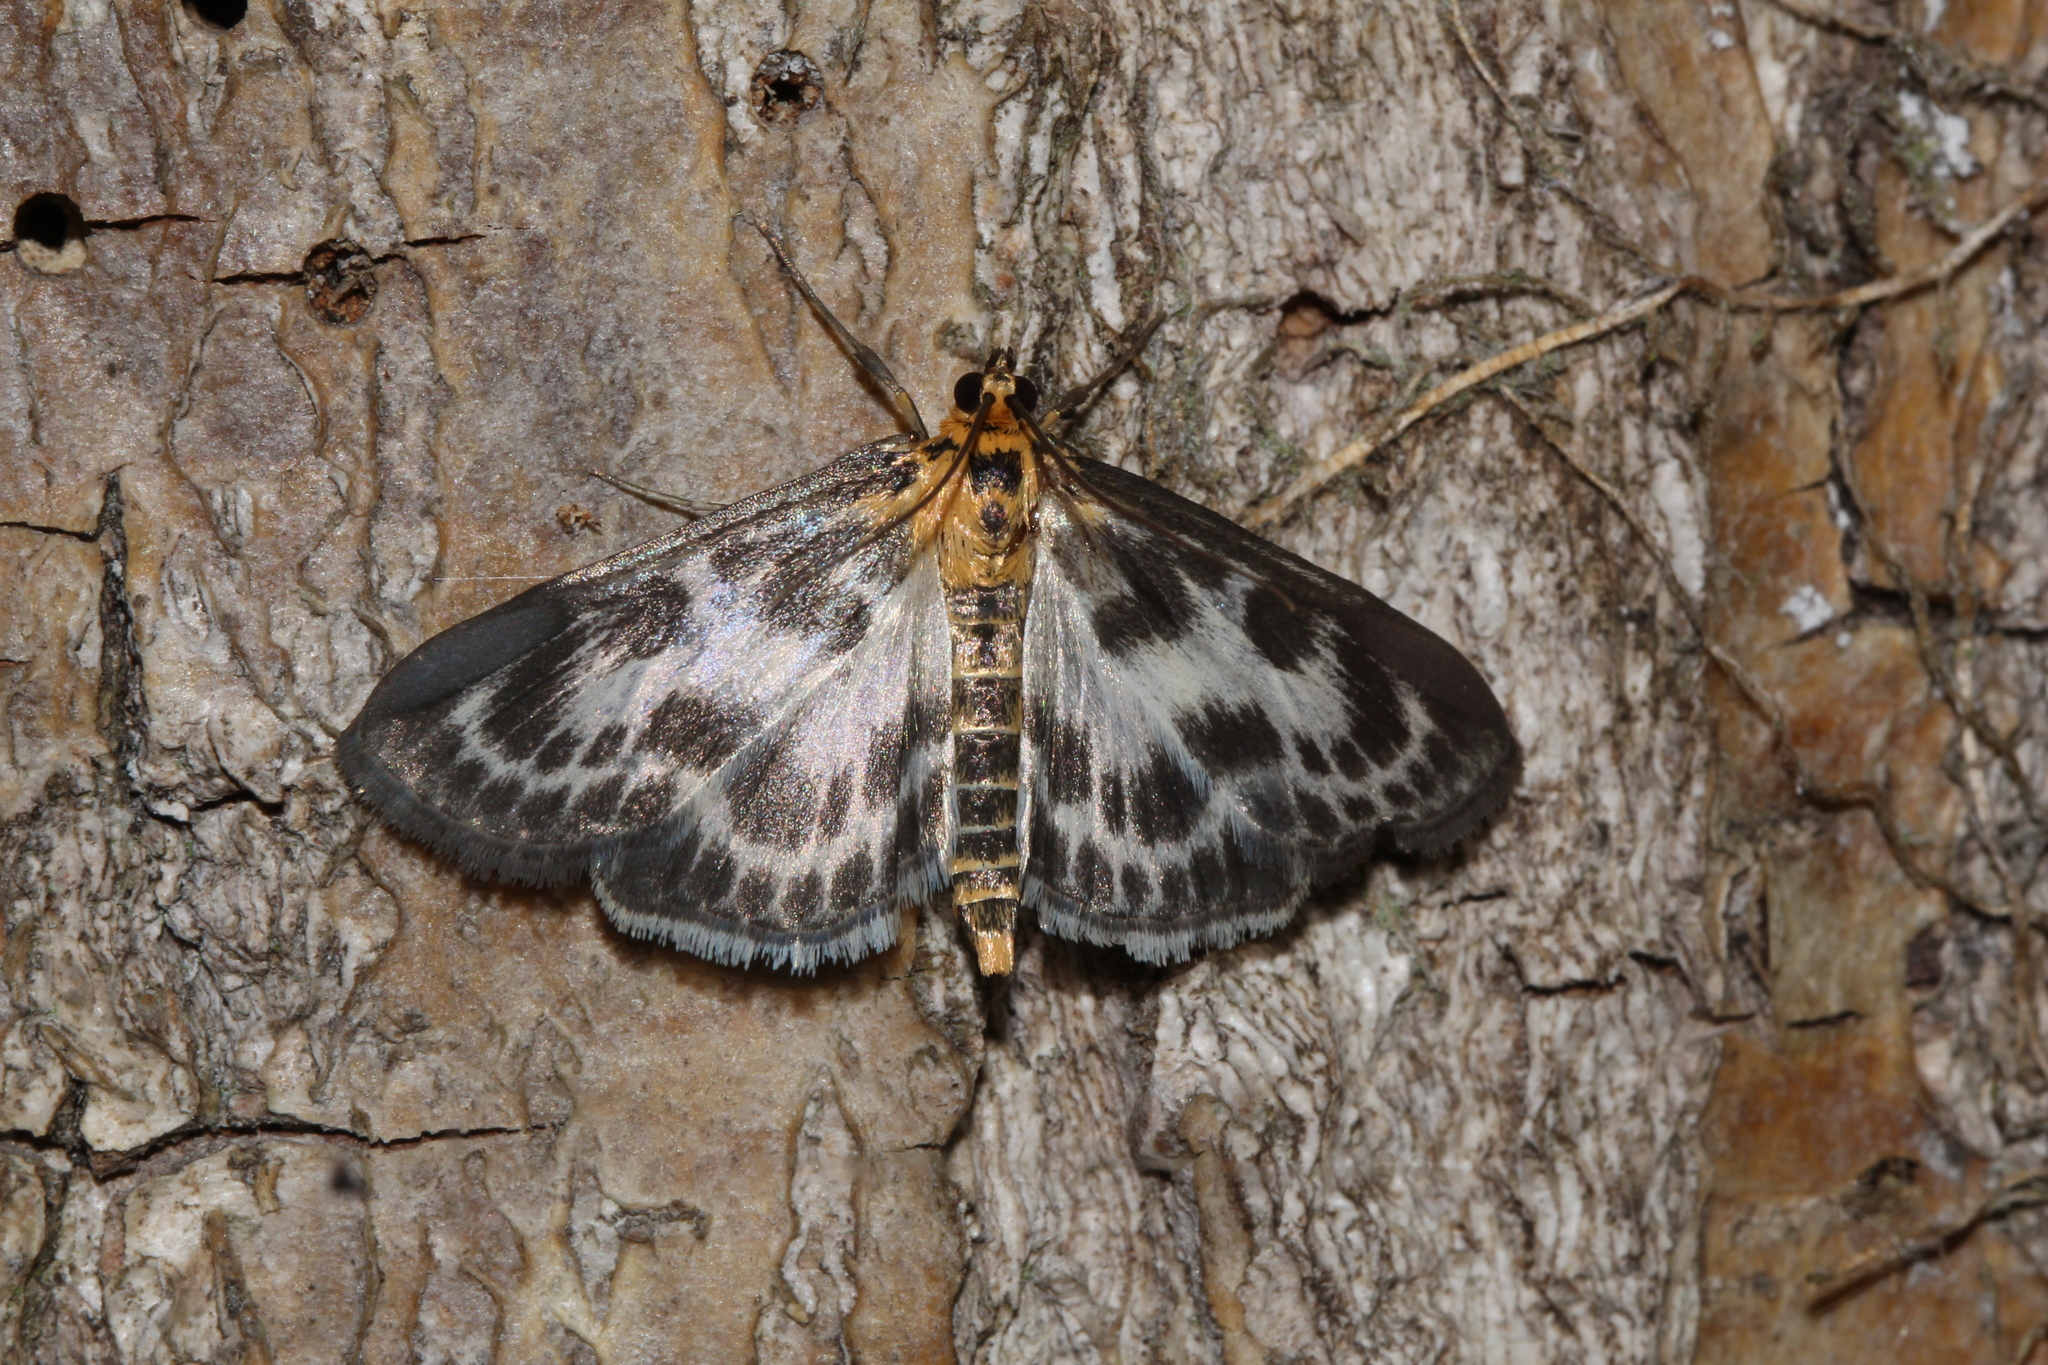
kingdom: Animalia
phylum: Arthropoda
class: Insecta
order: Lepidoptera
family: Crambidae
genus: Anania
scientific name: Anania hortulata
